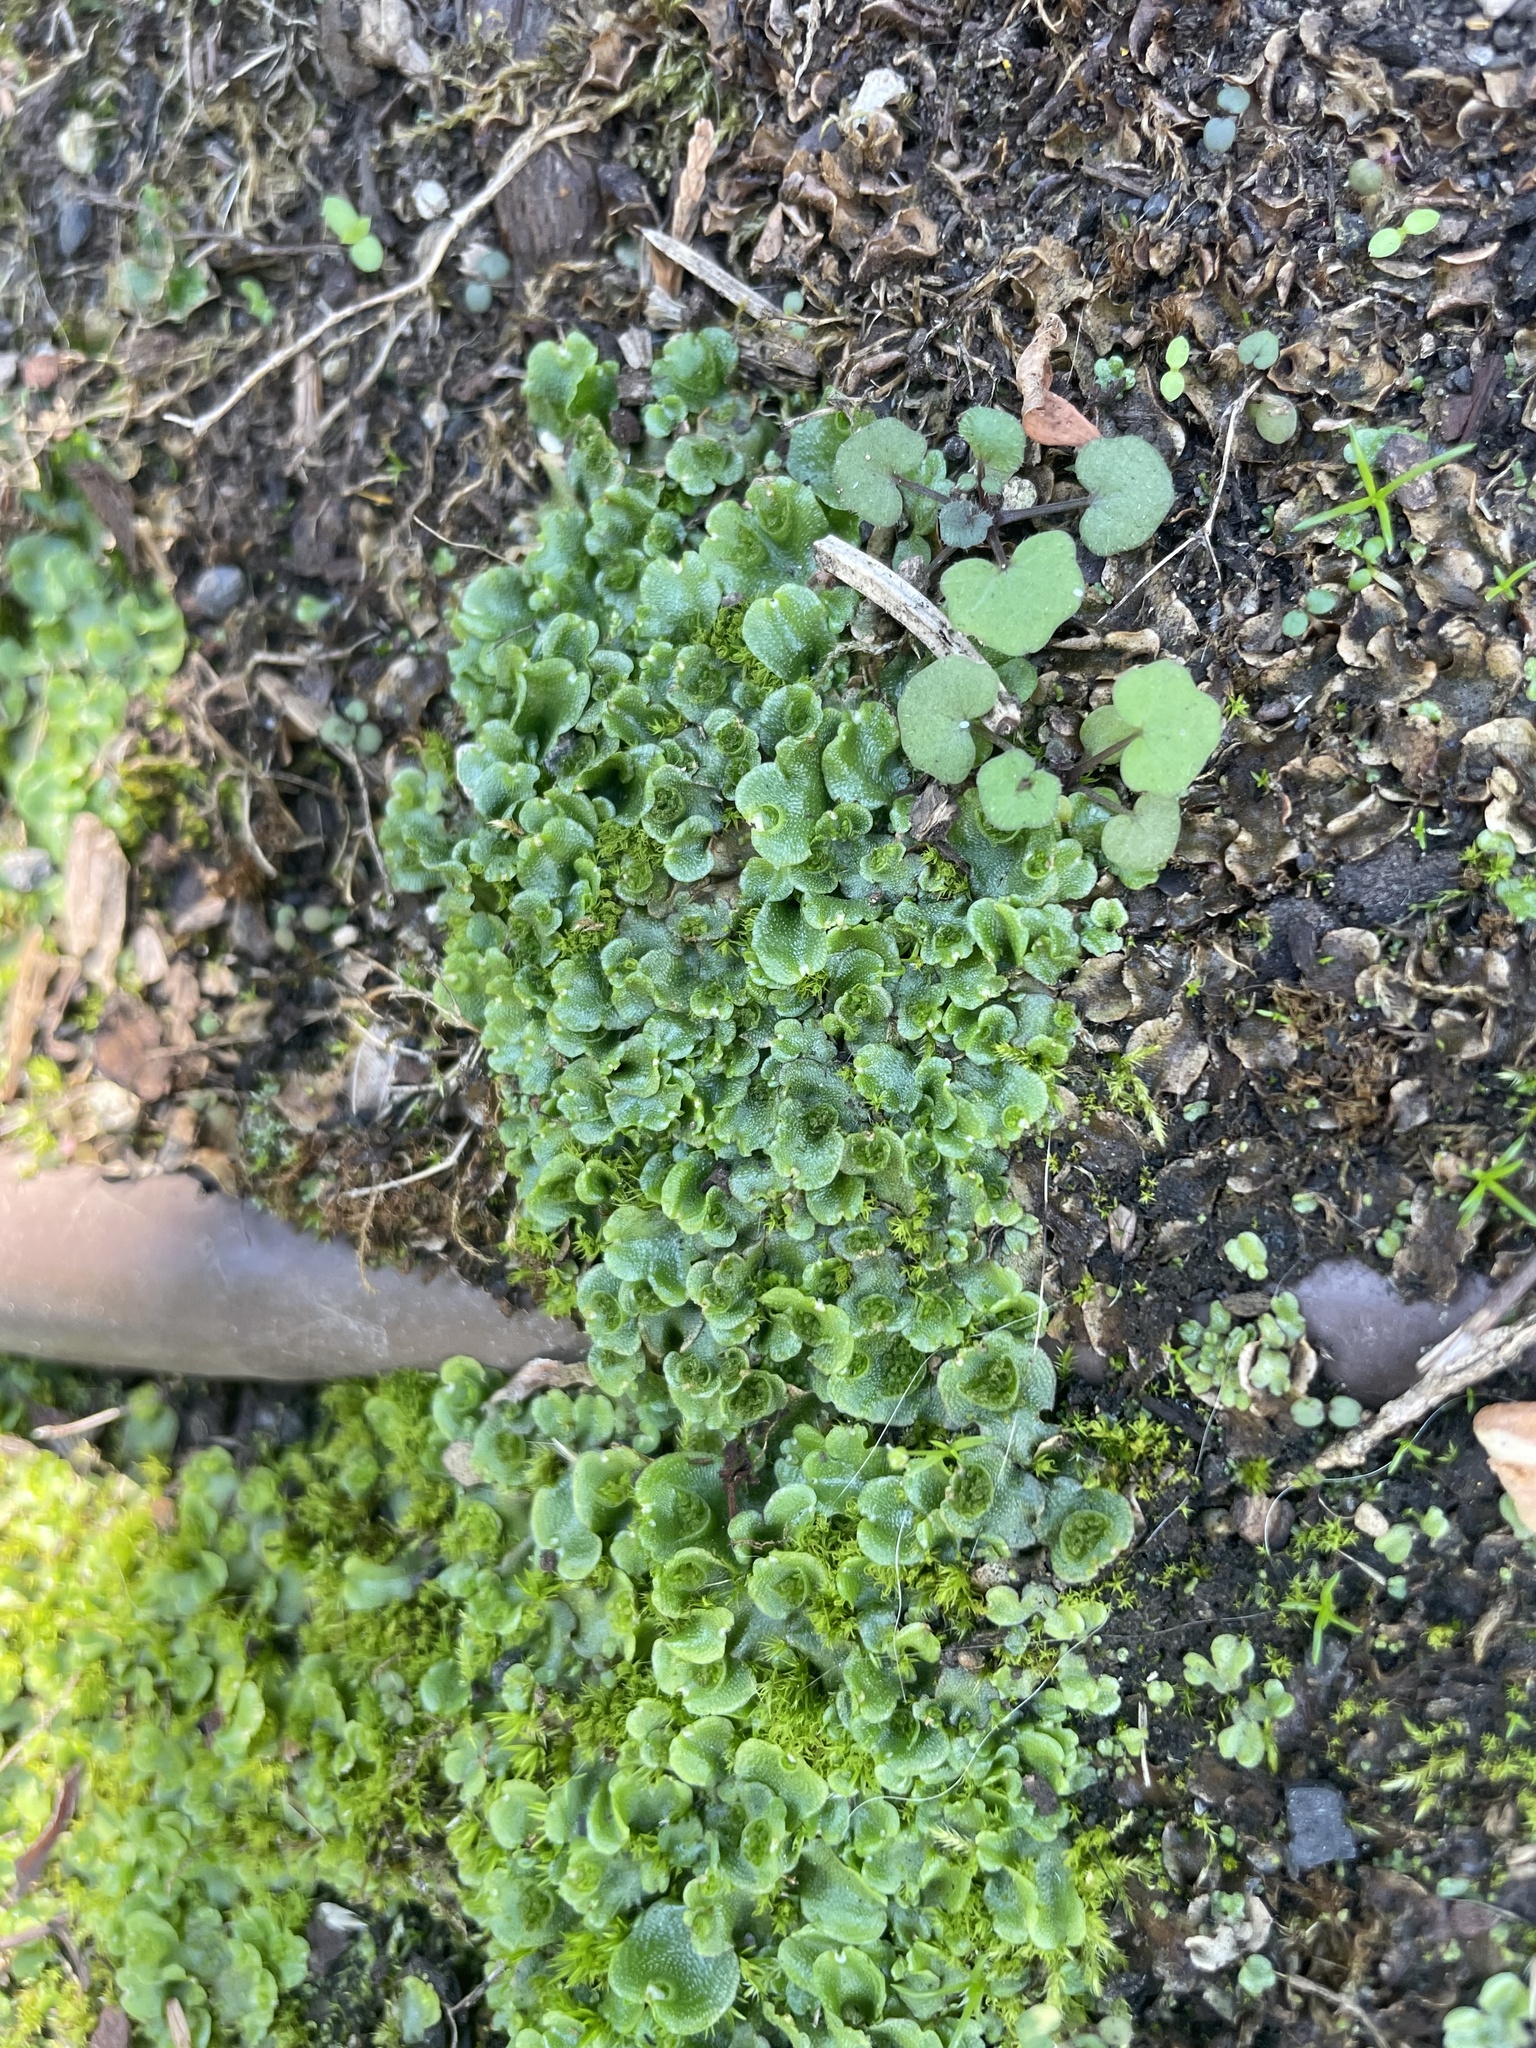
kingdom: Plantae
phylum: Marchantiophyta
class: Marchantiopsida
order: Lunulariales
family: Lunulariaceae
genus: Lunularia
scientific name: Lunularia cruciata
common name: Crescent-cup liverwort
